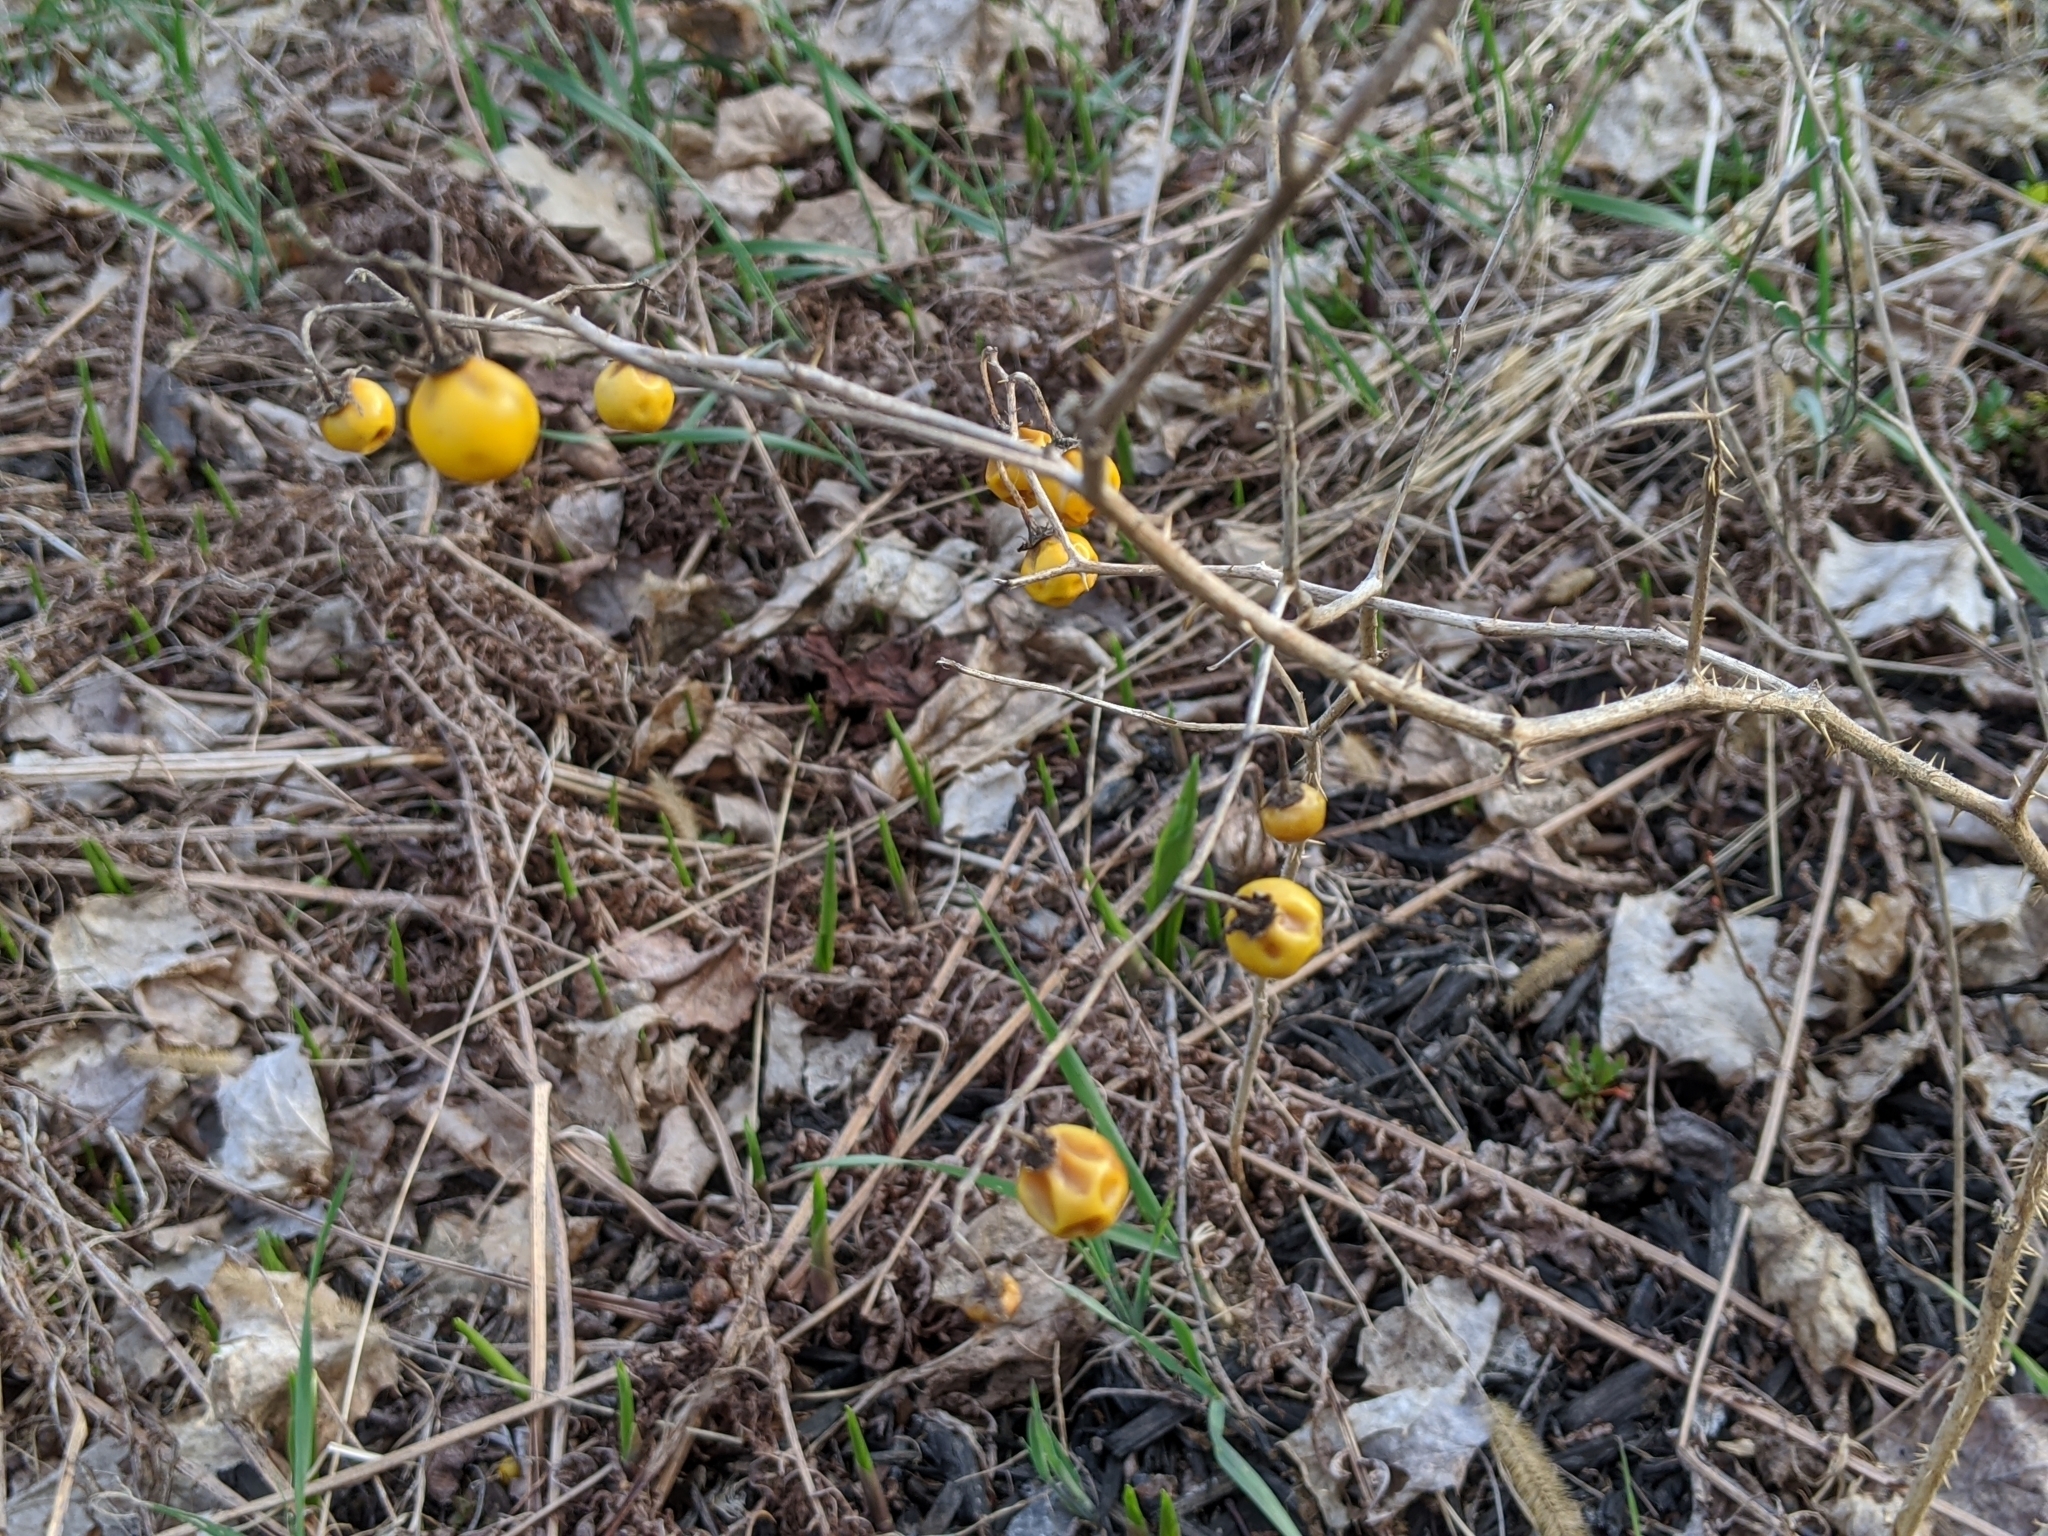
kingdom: Plantae
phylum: Tracheophyta
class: Magnoliopsida
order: Solanales
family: Solanaceae
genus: Solanum
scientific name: Solanum carolinense
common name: Horse-nettle
